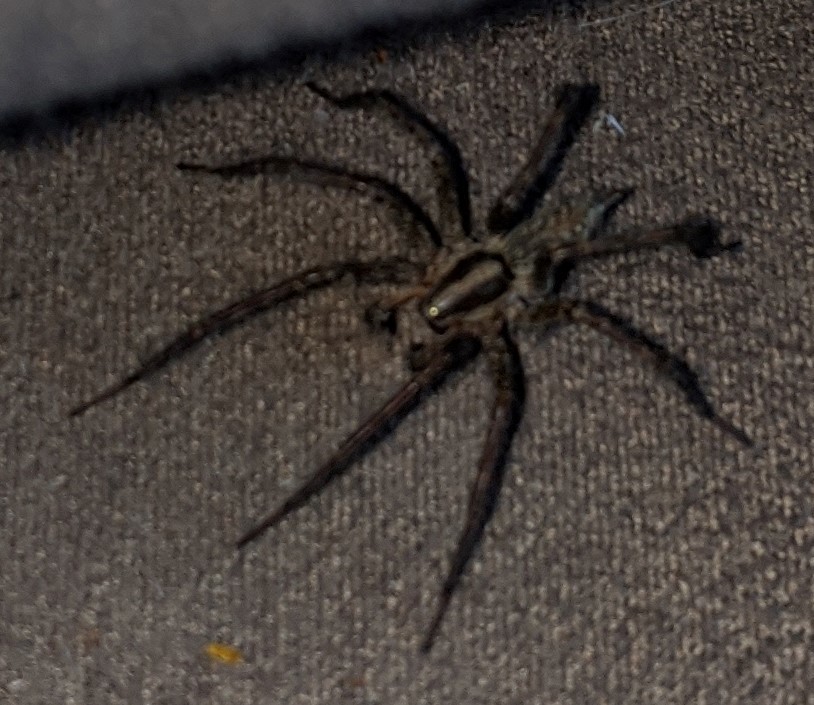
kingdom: Animalia
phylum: Arthropoda
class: Arachnida
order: Araneae
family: Agelenidae
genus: Agelenopsis
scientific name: Agelenopsis
